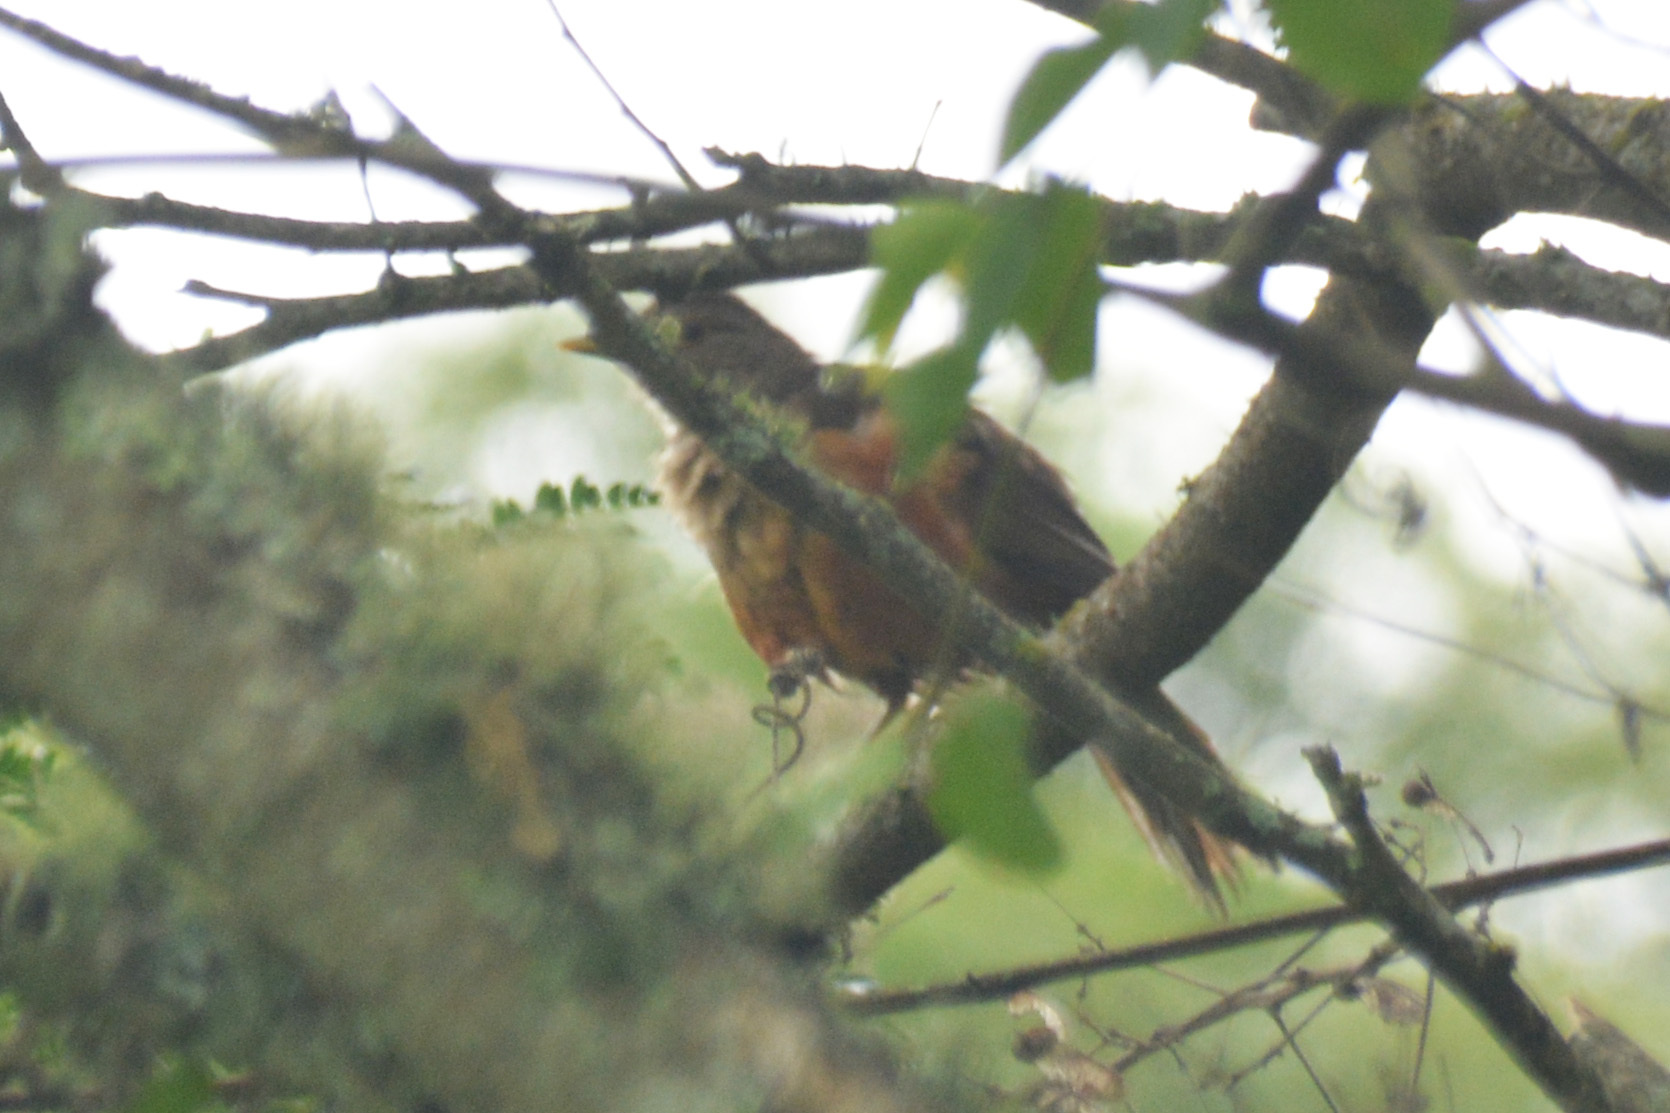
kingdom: Animalia
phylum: Chordata
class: Aves
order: Passeriformes
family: Turdidae
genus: Turdus
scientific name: Turdus rufiventris
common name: Rufous-bellied thrush
